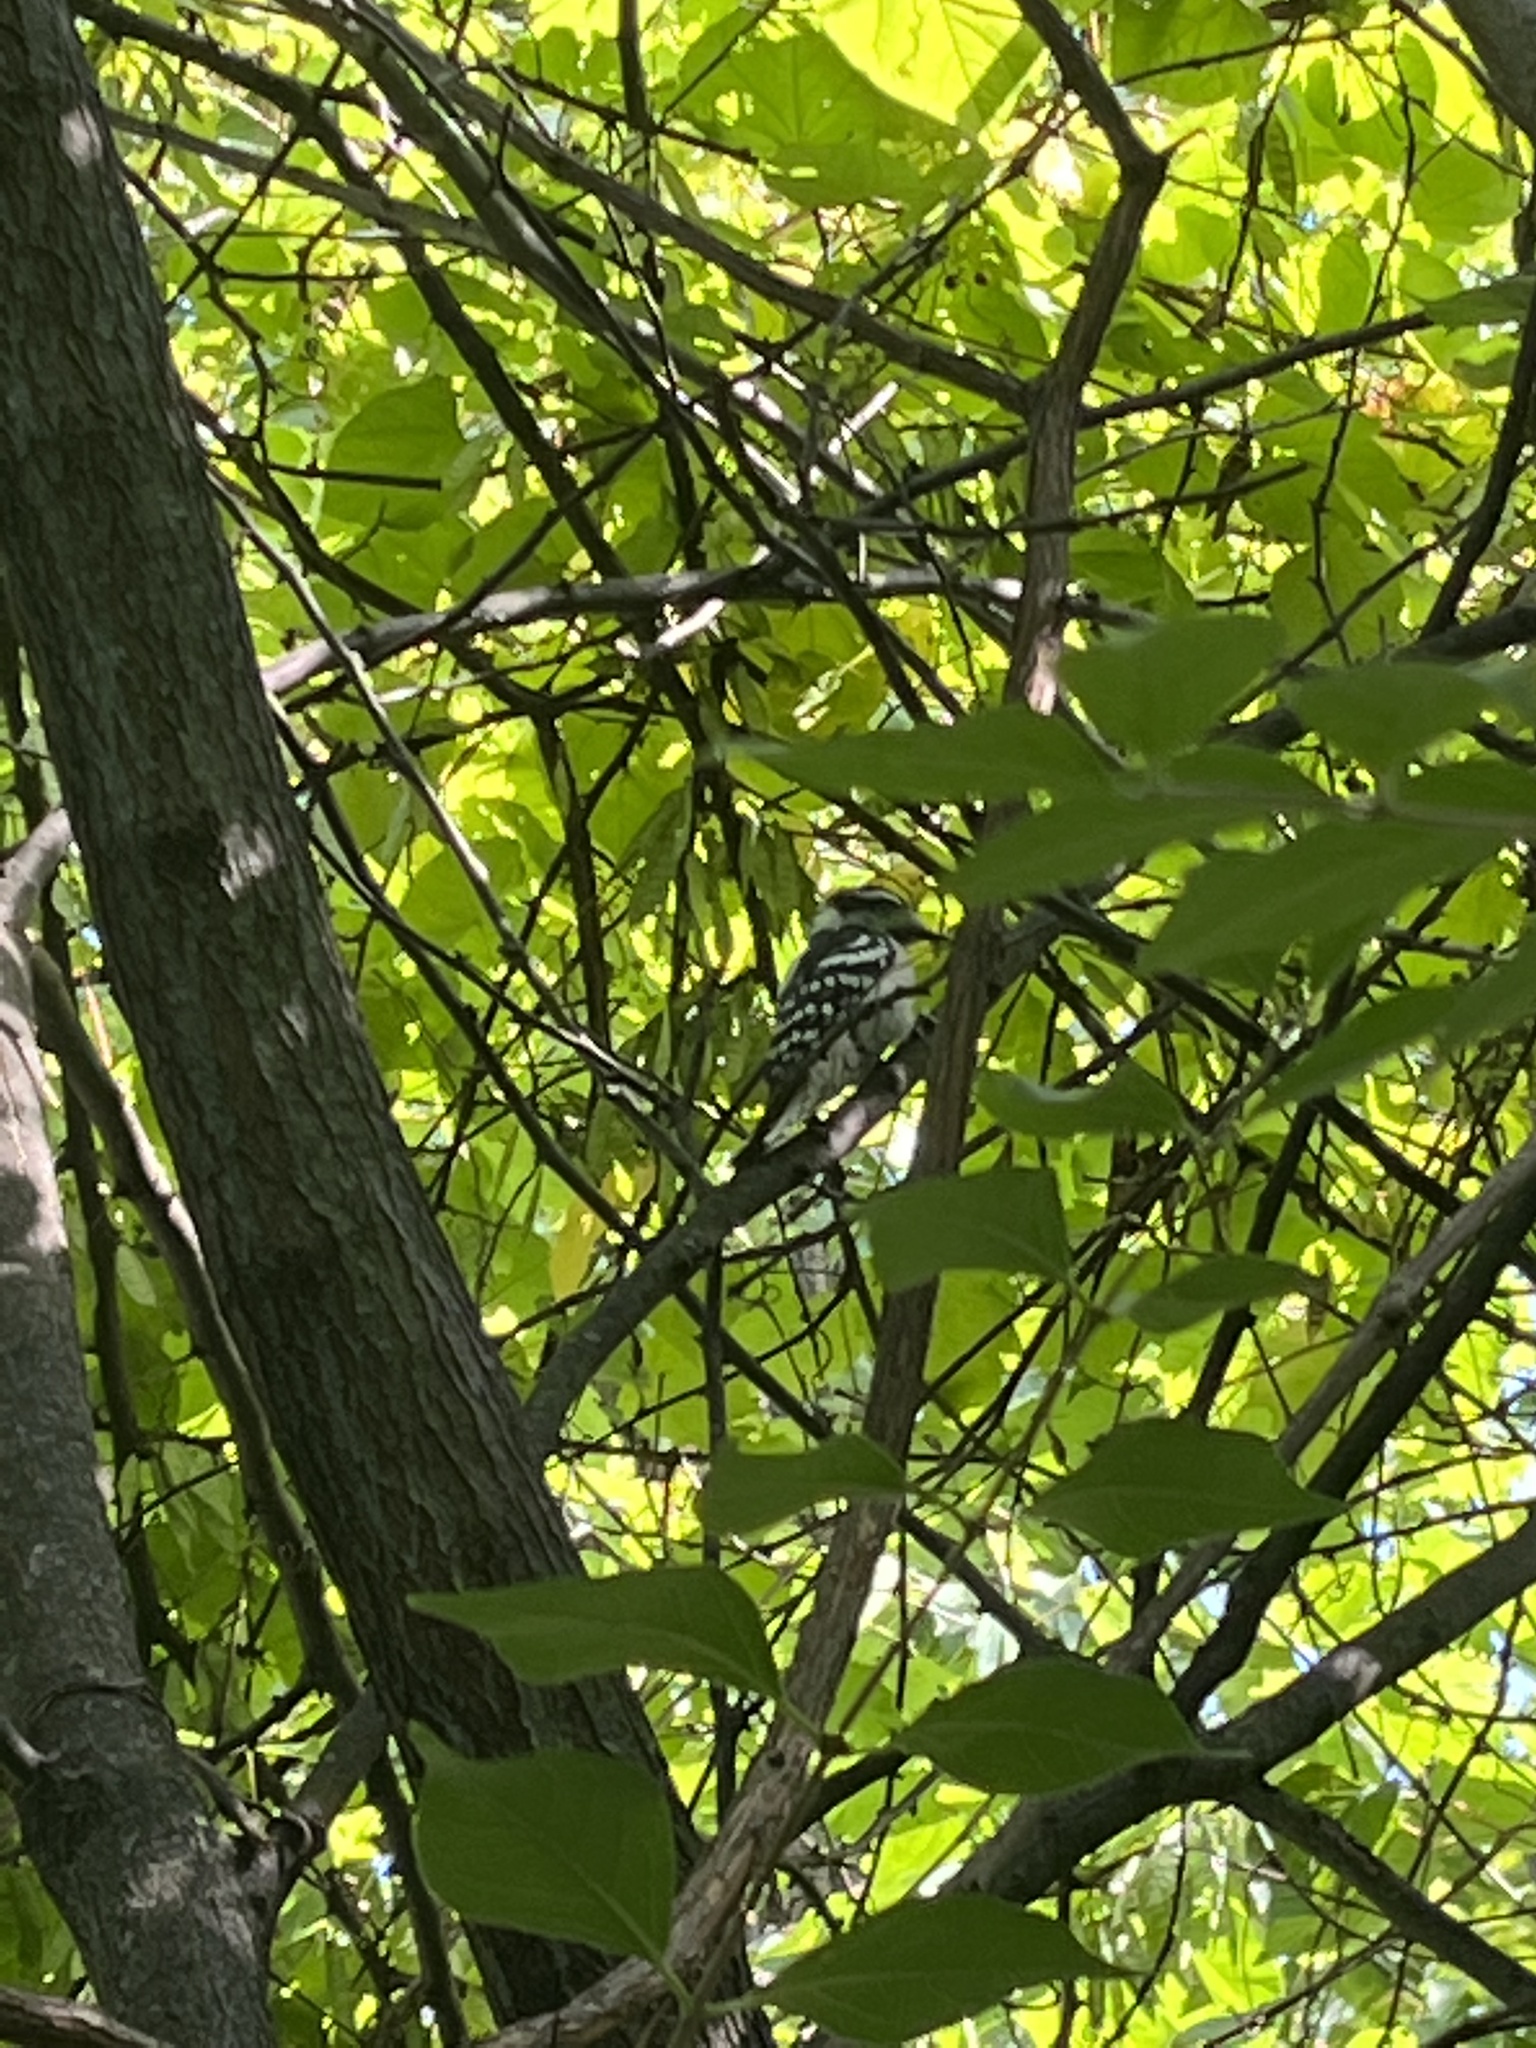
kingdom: Animalia
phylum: Chordata
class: Aves
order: Piciformes
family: Picidae
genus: Dryobates
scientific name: Dryobates pubescens
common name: Downy woodpecker
